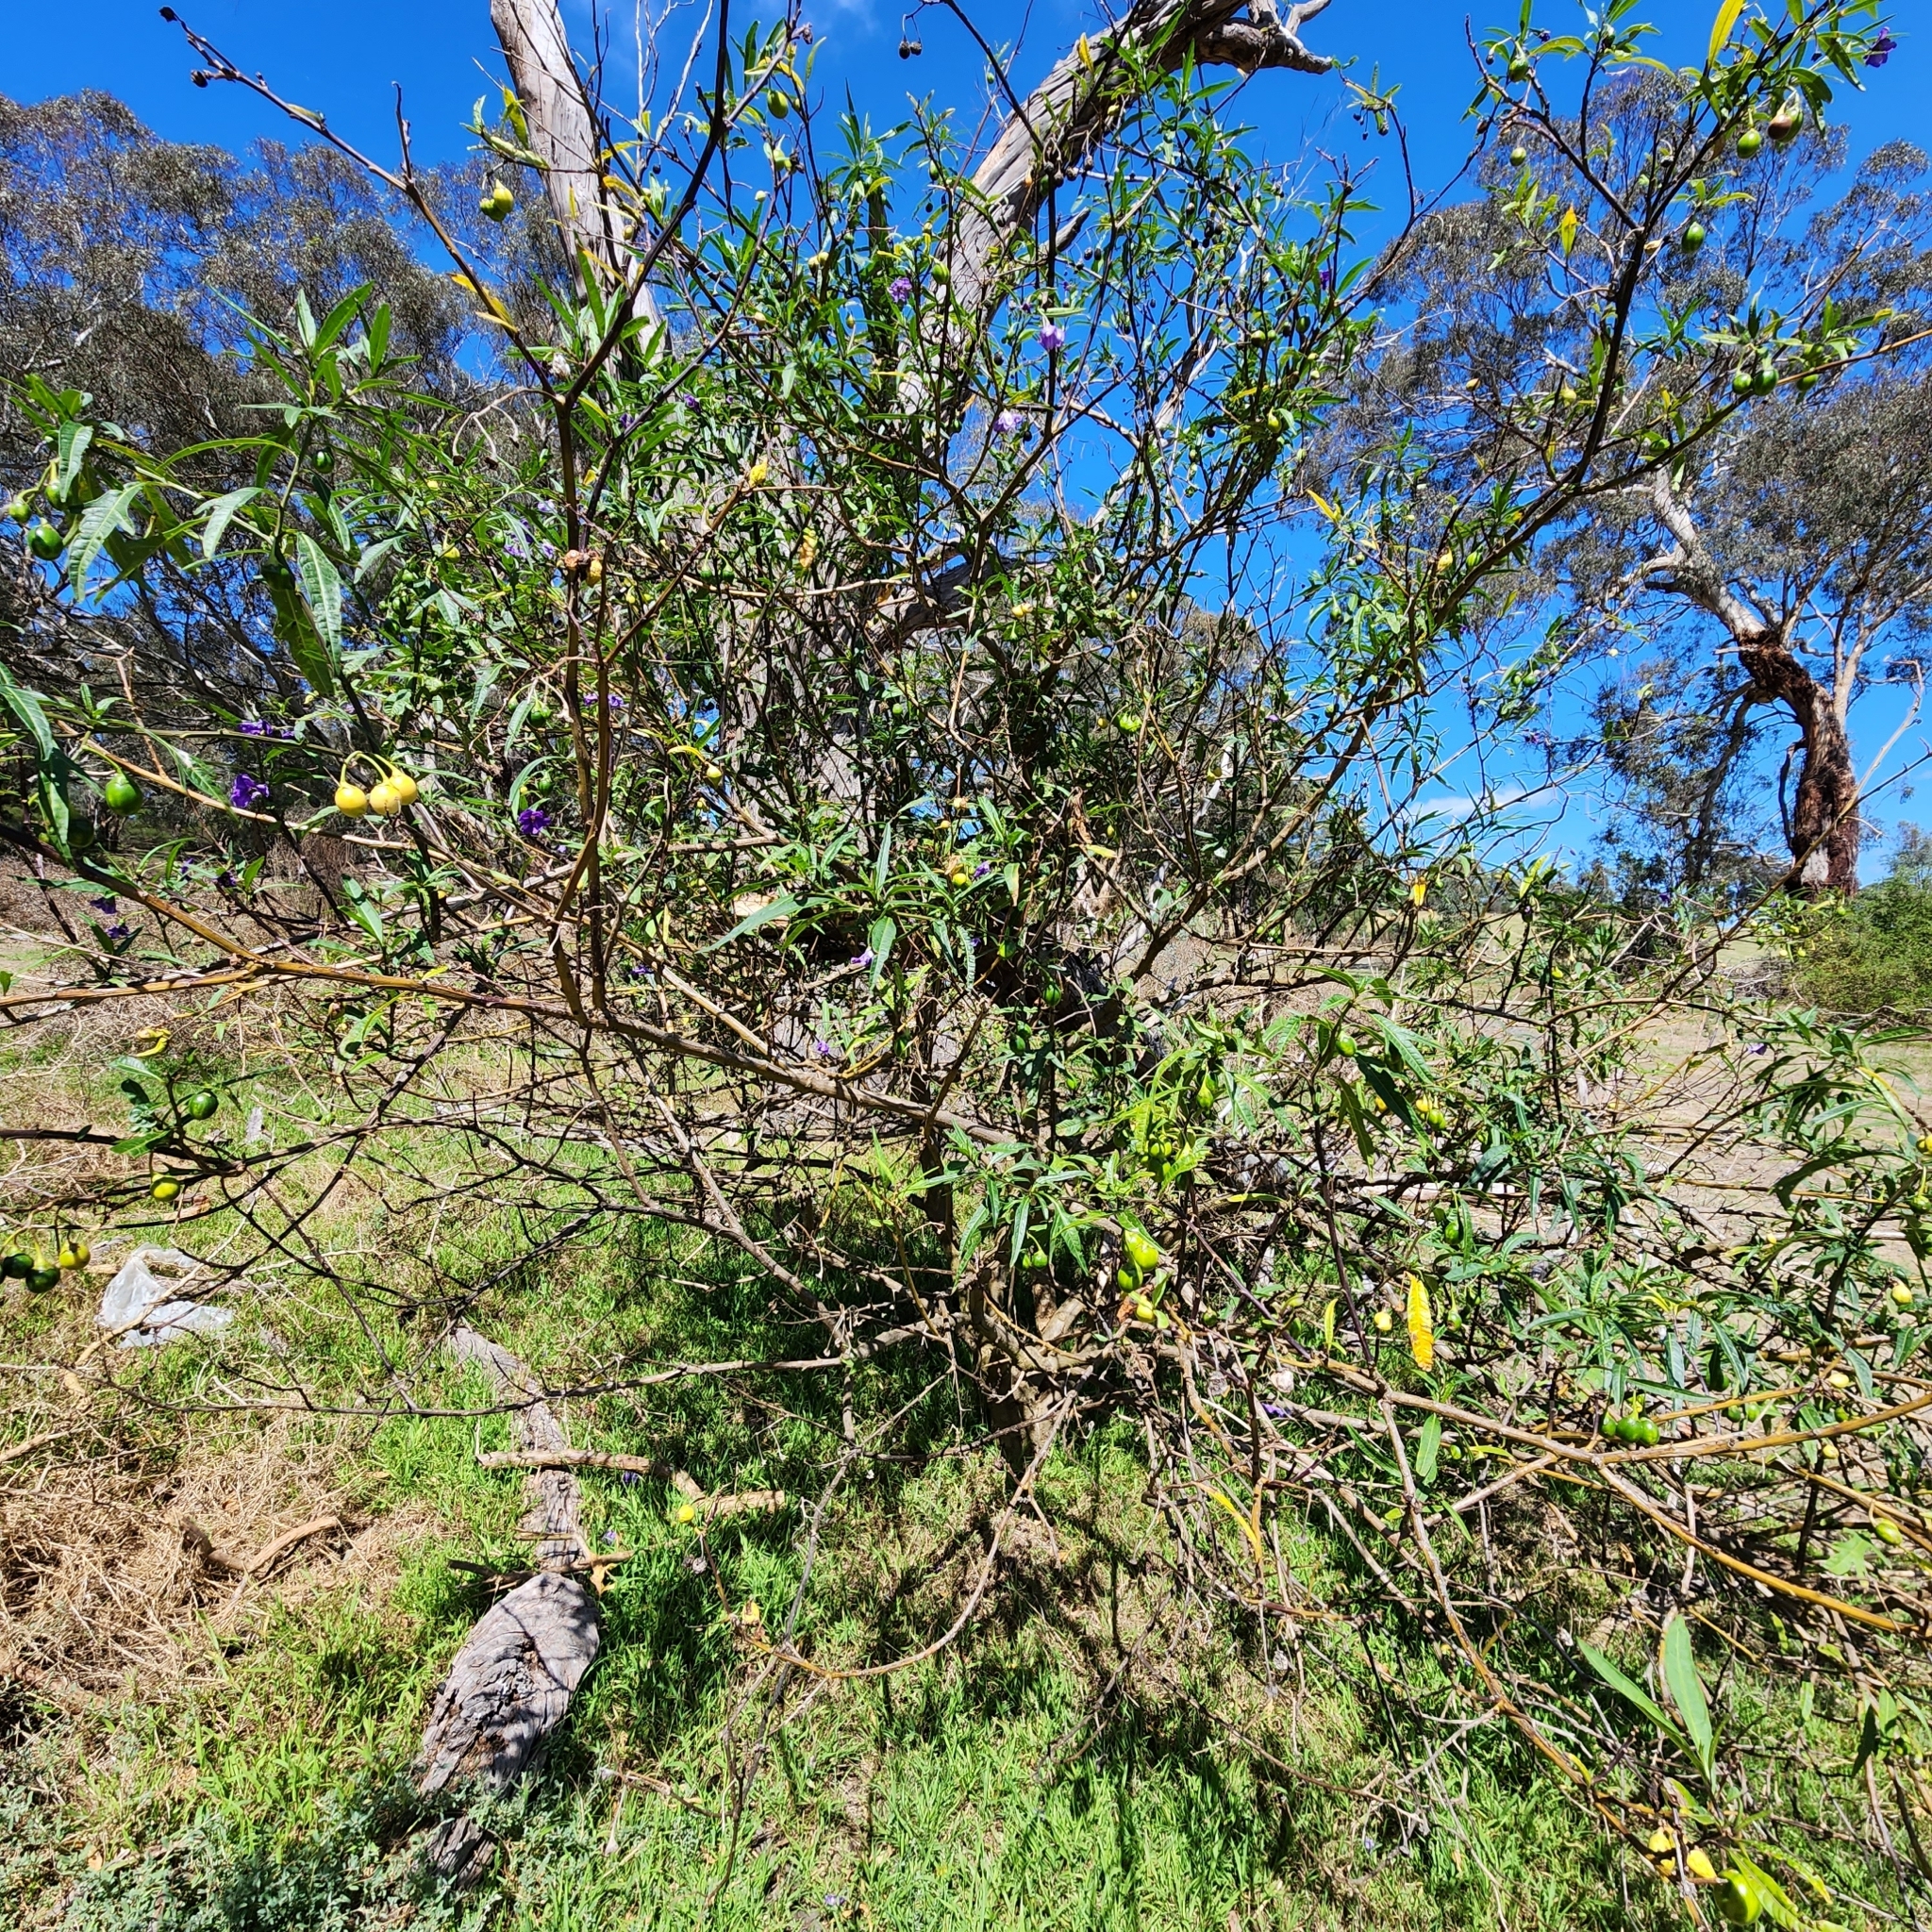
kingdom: Plantae
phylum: Tracheophyta
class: Magnoliopsida
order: Solanales
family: Solanaceae
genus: Solanum
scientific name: Solanum laciniatum
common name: Kangaroo-apple
